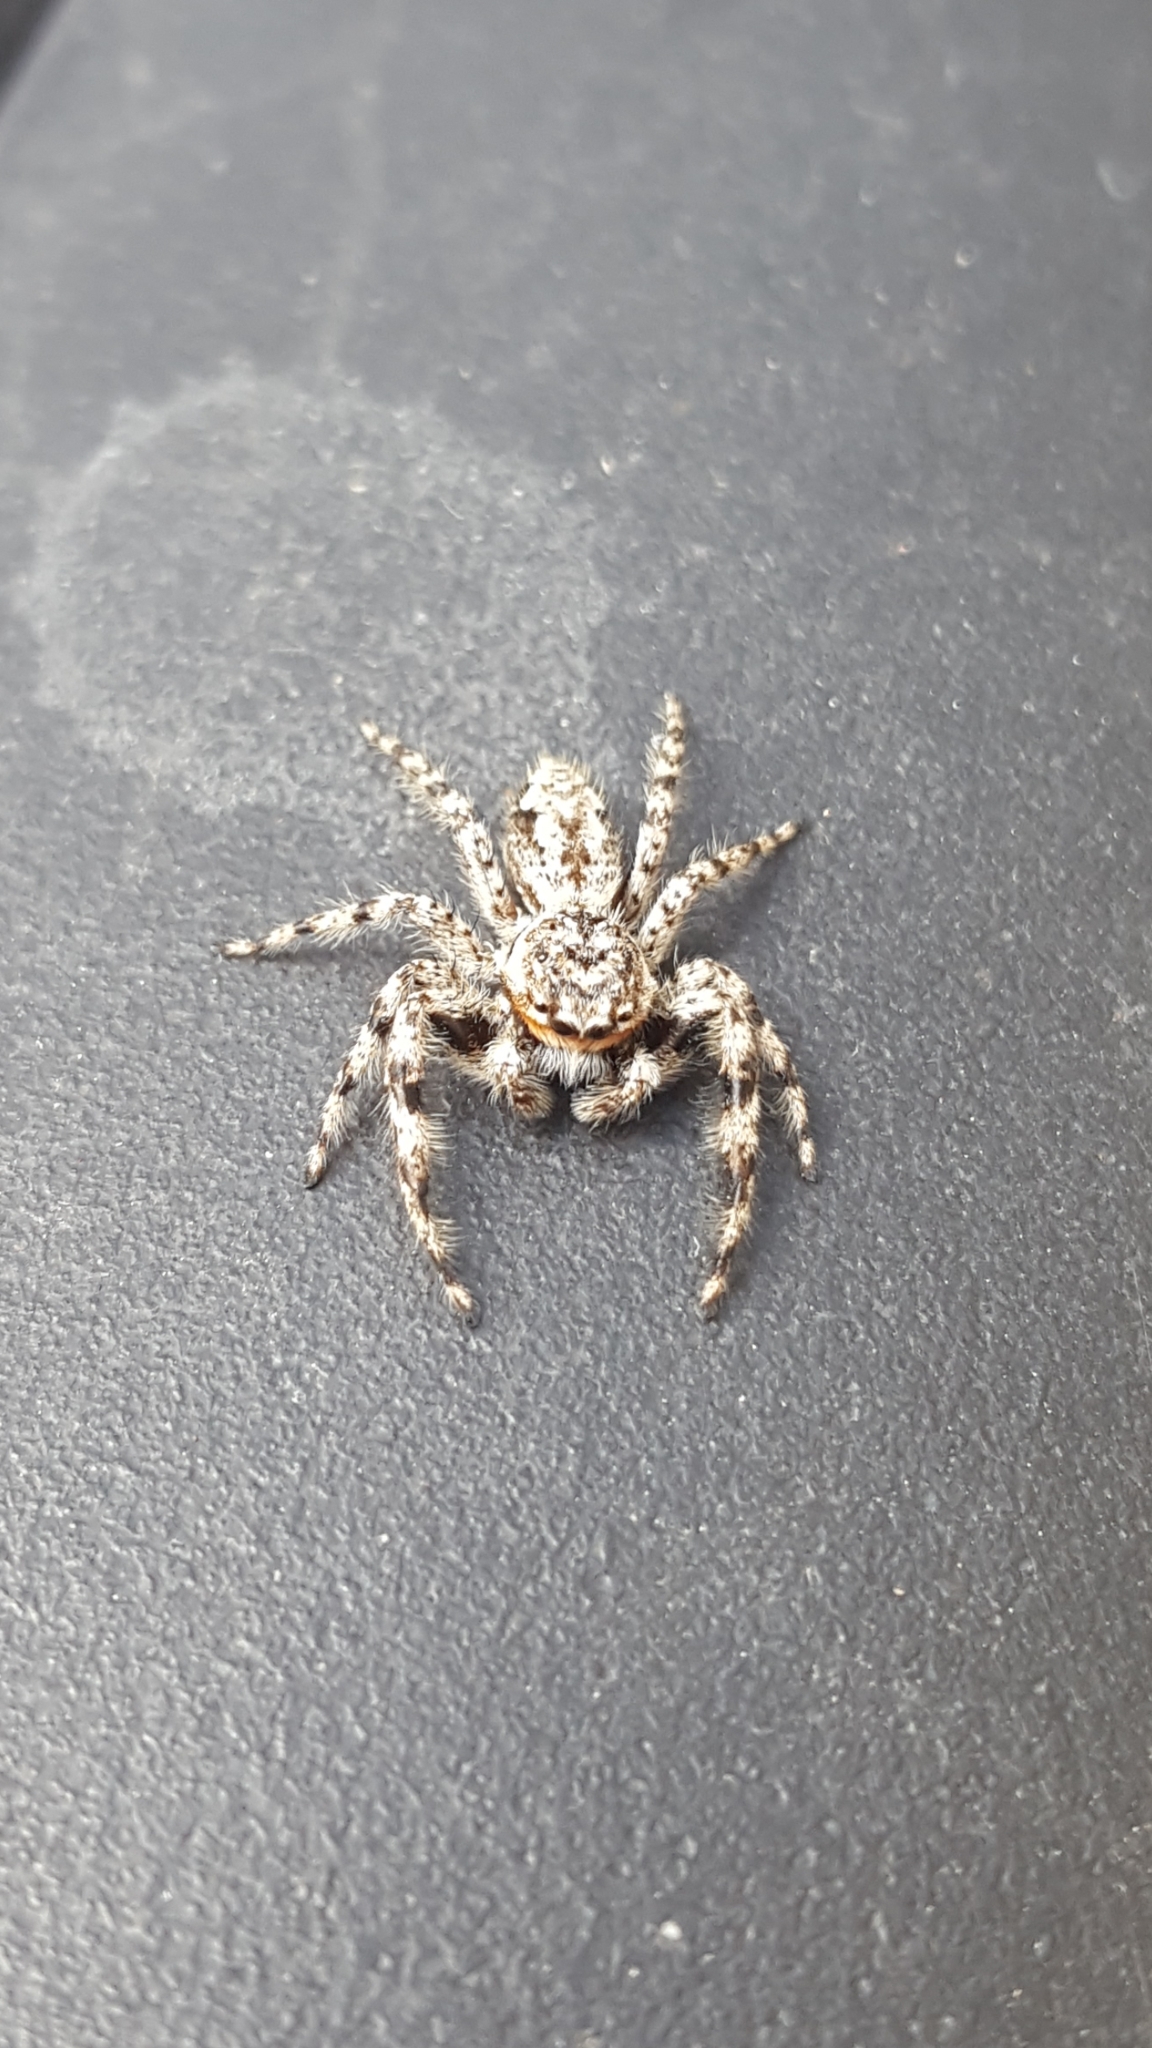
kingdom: Animalia
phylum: Arthropoda
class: Arachnida
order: Araneae
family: Salticidae
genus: Platycryptus
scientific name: Platycryptus undatus
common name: Tan jumping spider
